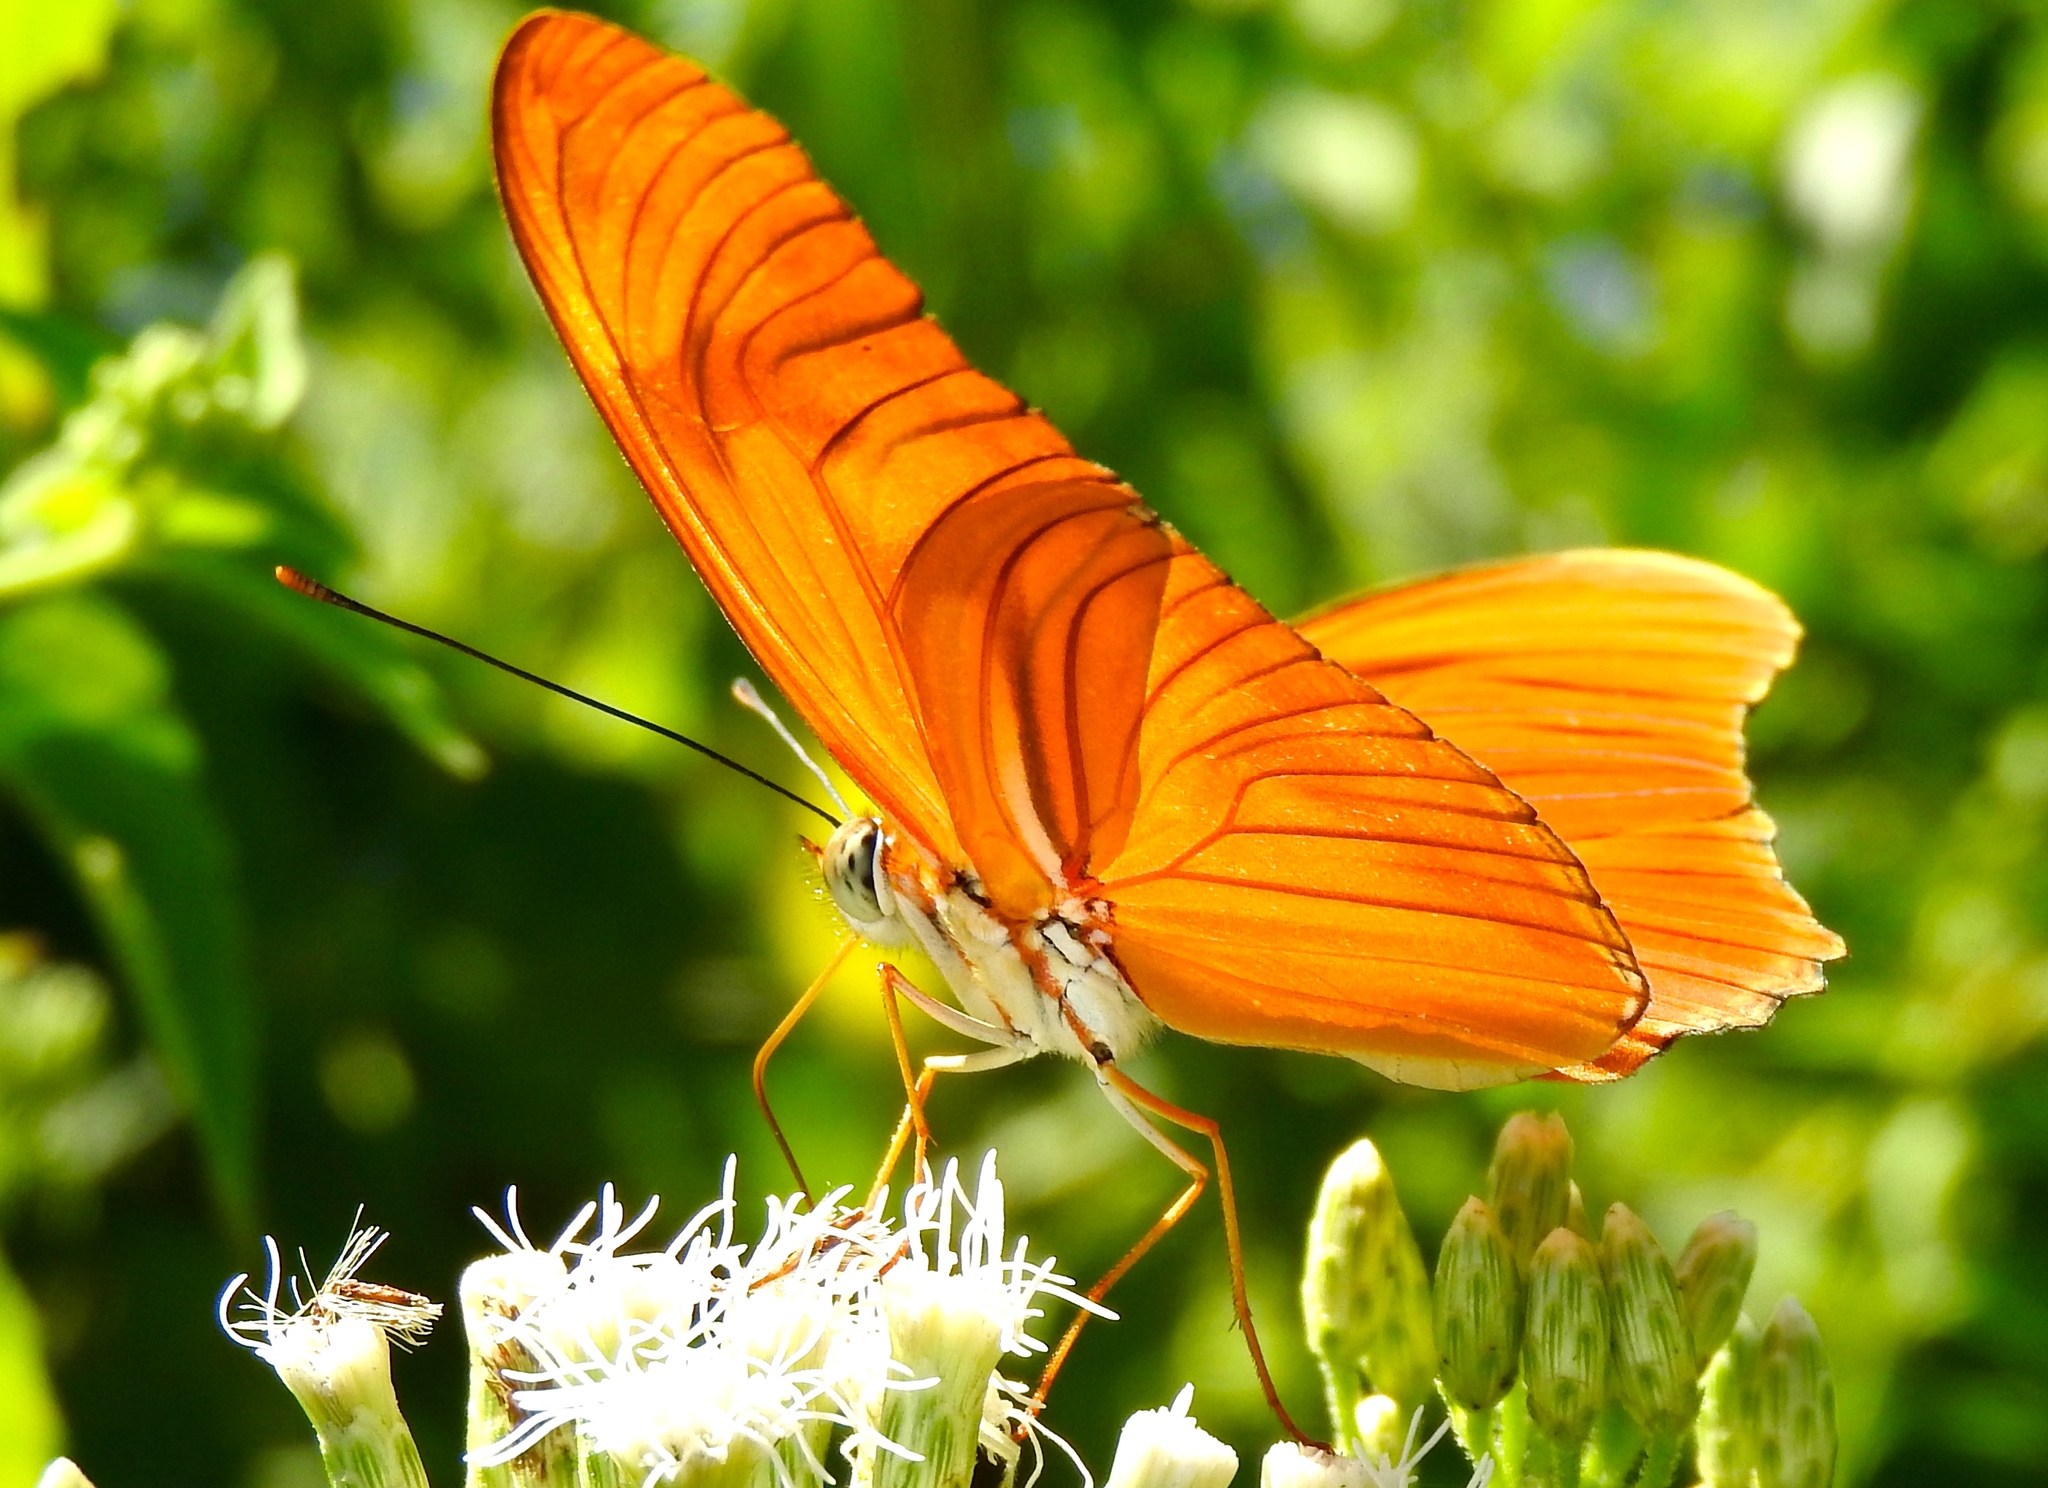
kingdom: Animalia
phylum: Arthropoda
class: Insecta
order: Lepidoptera
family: Nymphalidae
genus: Dryas
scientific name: Dryas iulia
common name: Flambeau
